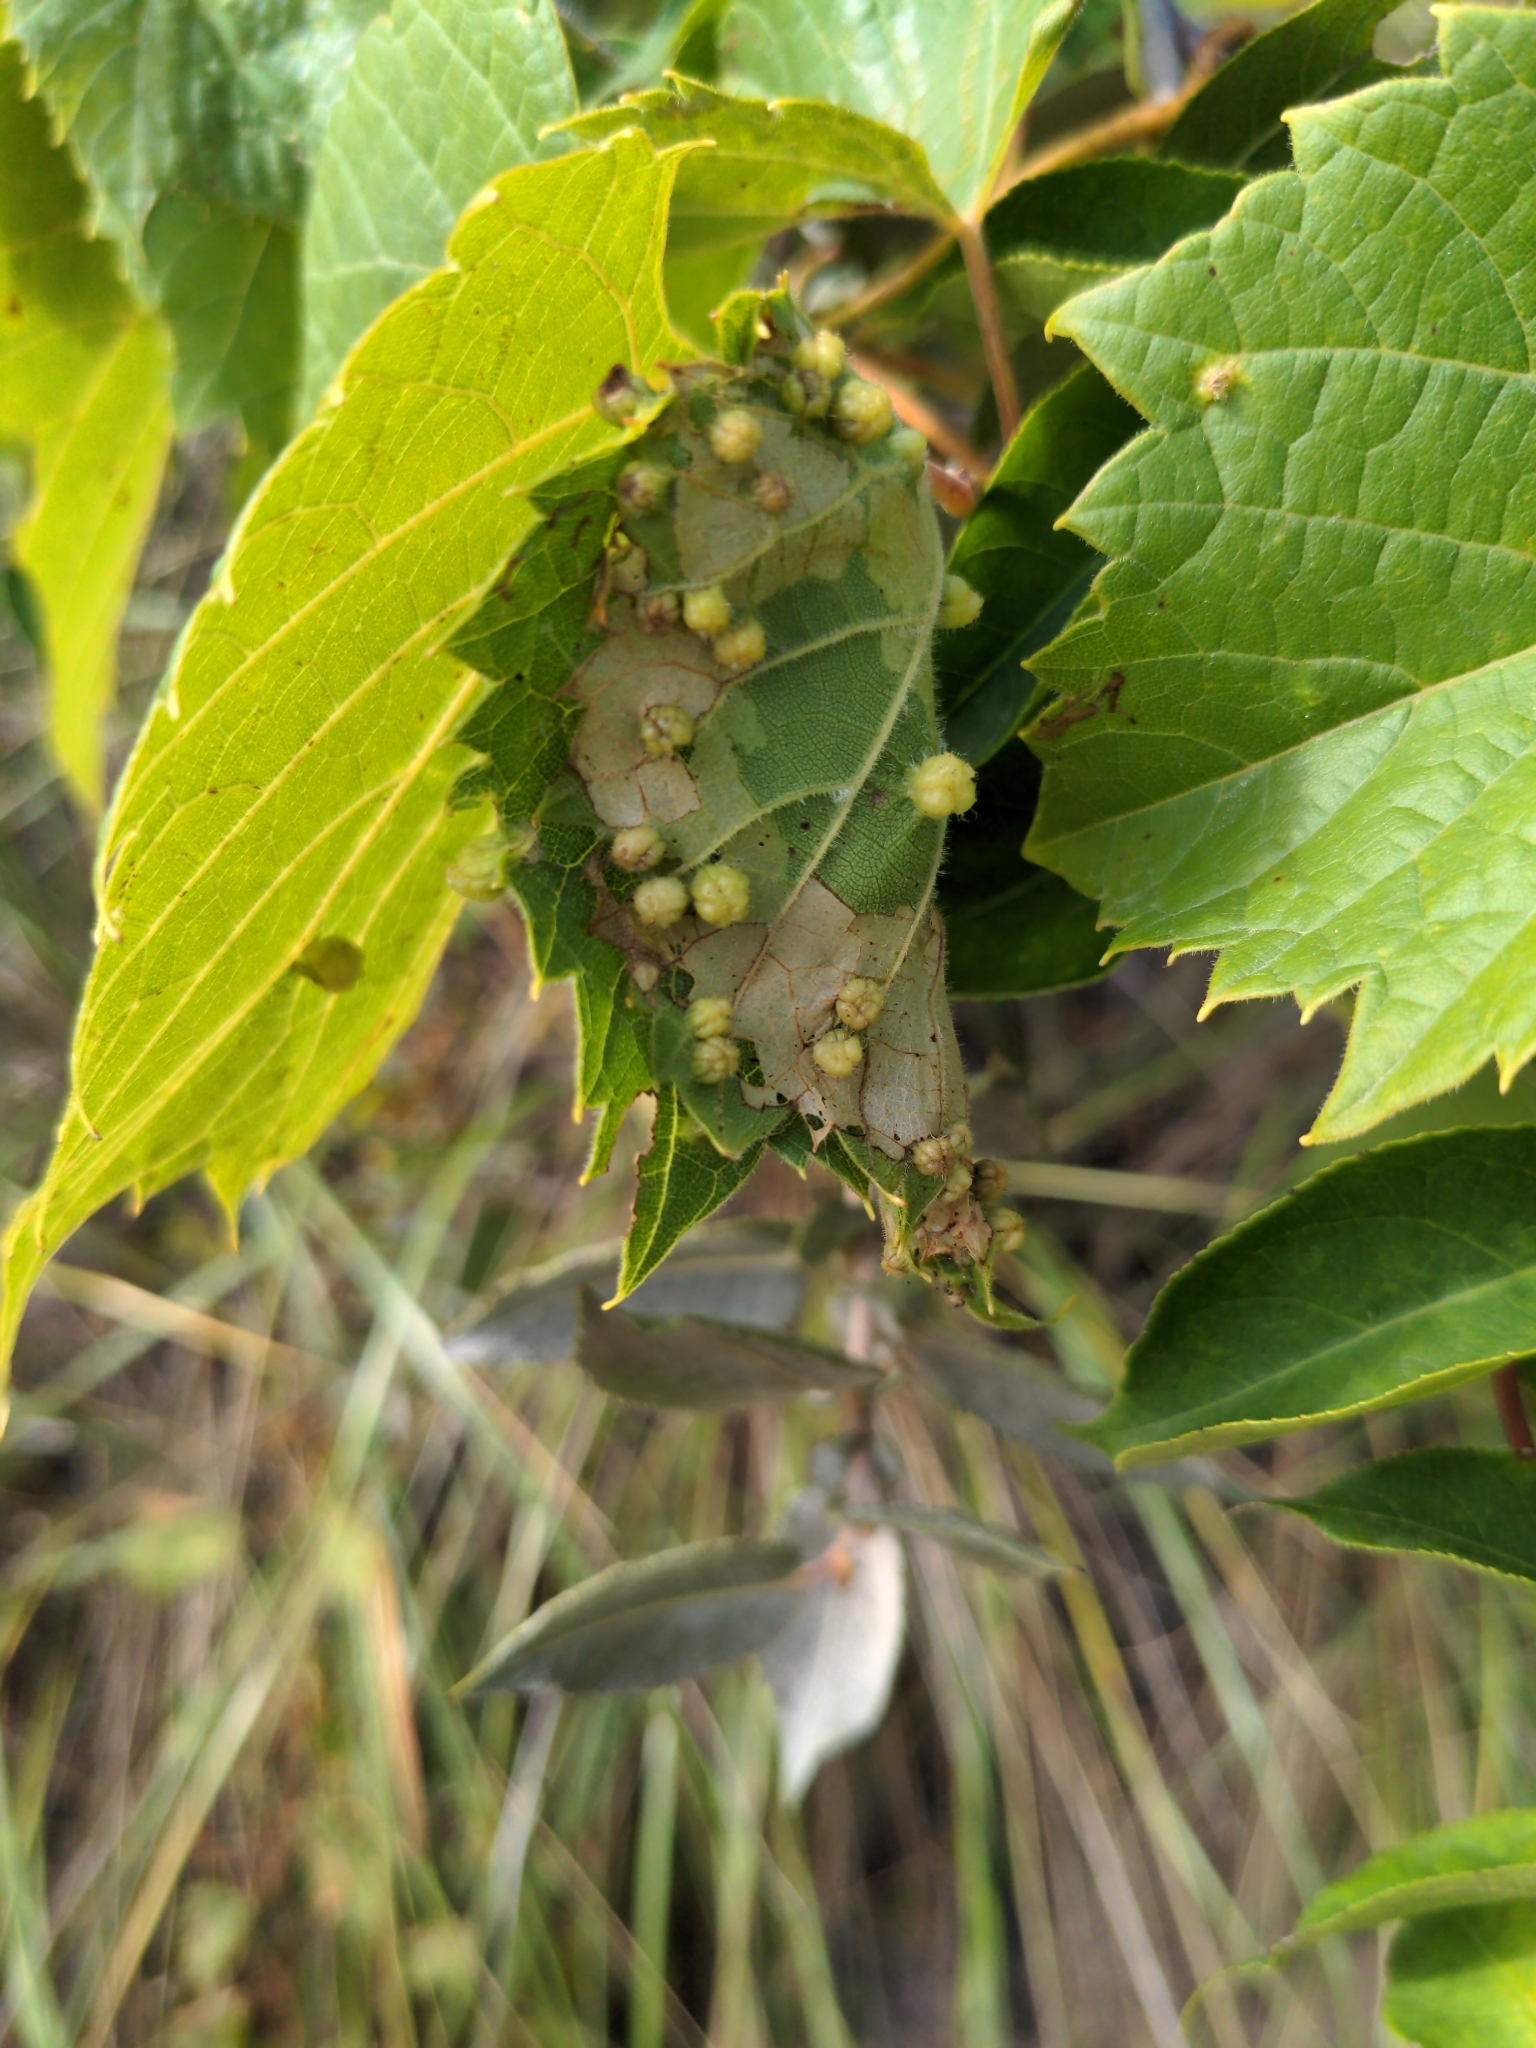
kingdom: Animalia
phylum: Arthropoda
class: Insecta
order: Hemiptera
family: Phylloxeridae
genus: Daktulosphaira
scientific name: Daktulosphaira vitifoliae
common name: Grape phylloxera
